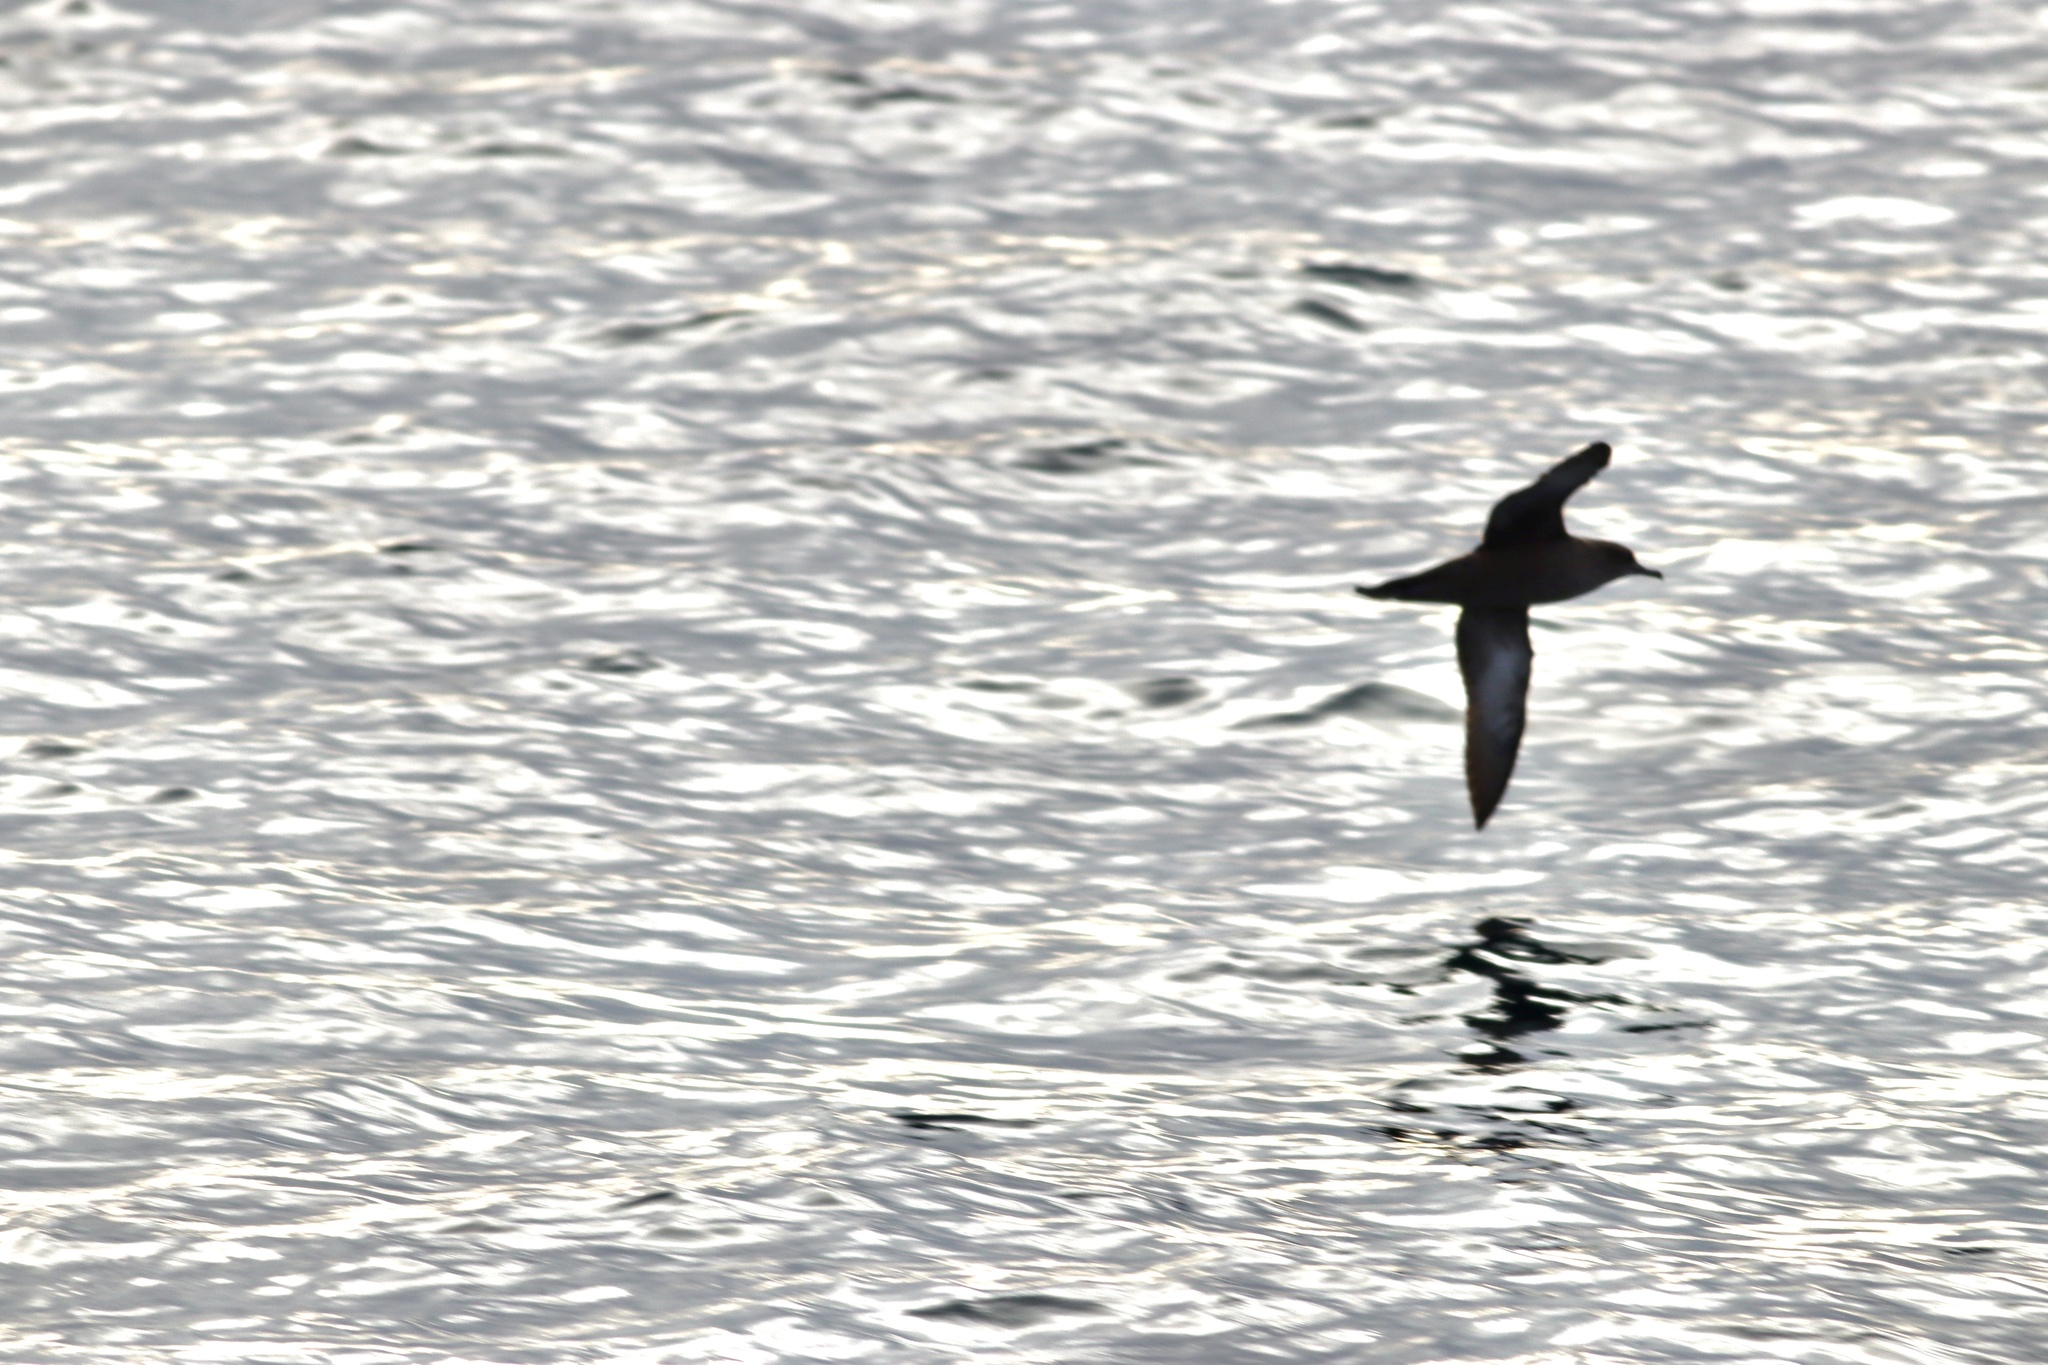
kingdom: Animalia
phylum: Chordata
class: Aves
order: Procellariiformes
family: Procellariidae
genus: Puffinus
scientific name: Puffinus griseus
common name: Sooty shearwater
